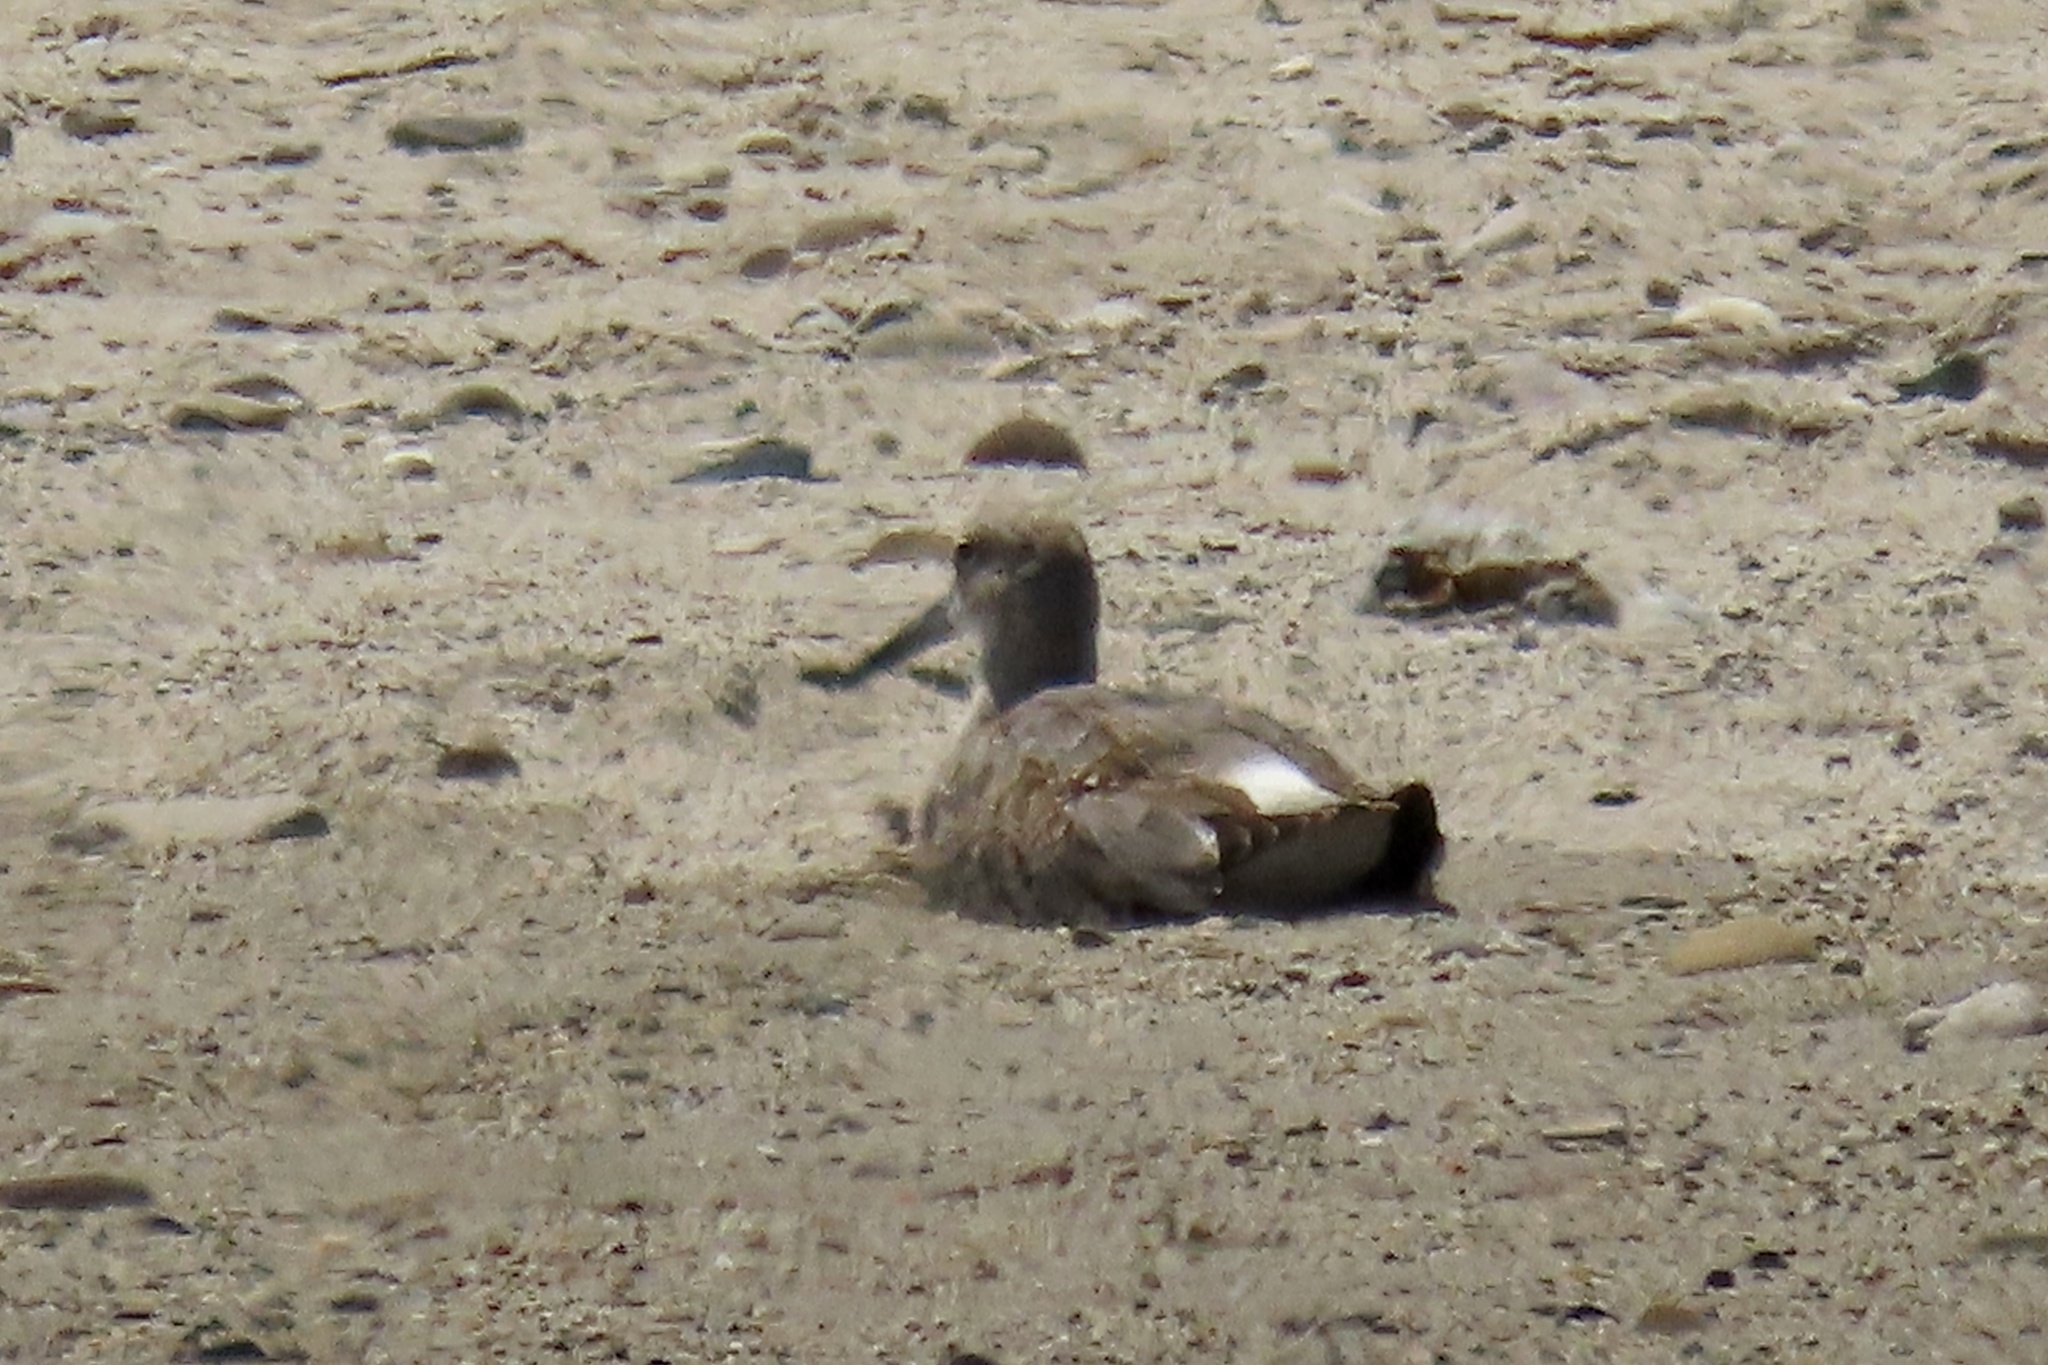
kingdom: Animalia
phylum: Chordata
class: Aves
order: Charadriiformes
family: Scolopacidae
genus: Tringa
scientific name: Tringa semipalmata
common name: Willet
